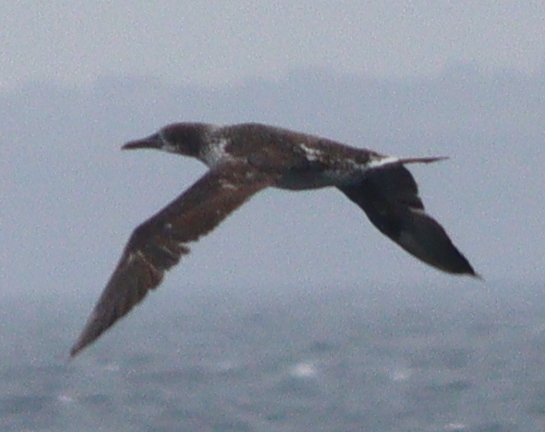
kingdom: Animalia
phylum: Chordata
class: Aves
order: Suliformes
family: Sulidae
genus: Morus
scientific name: Morus bassanus
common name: Northern gannet
